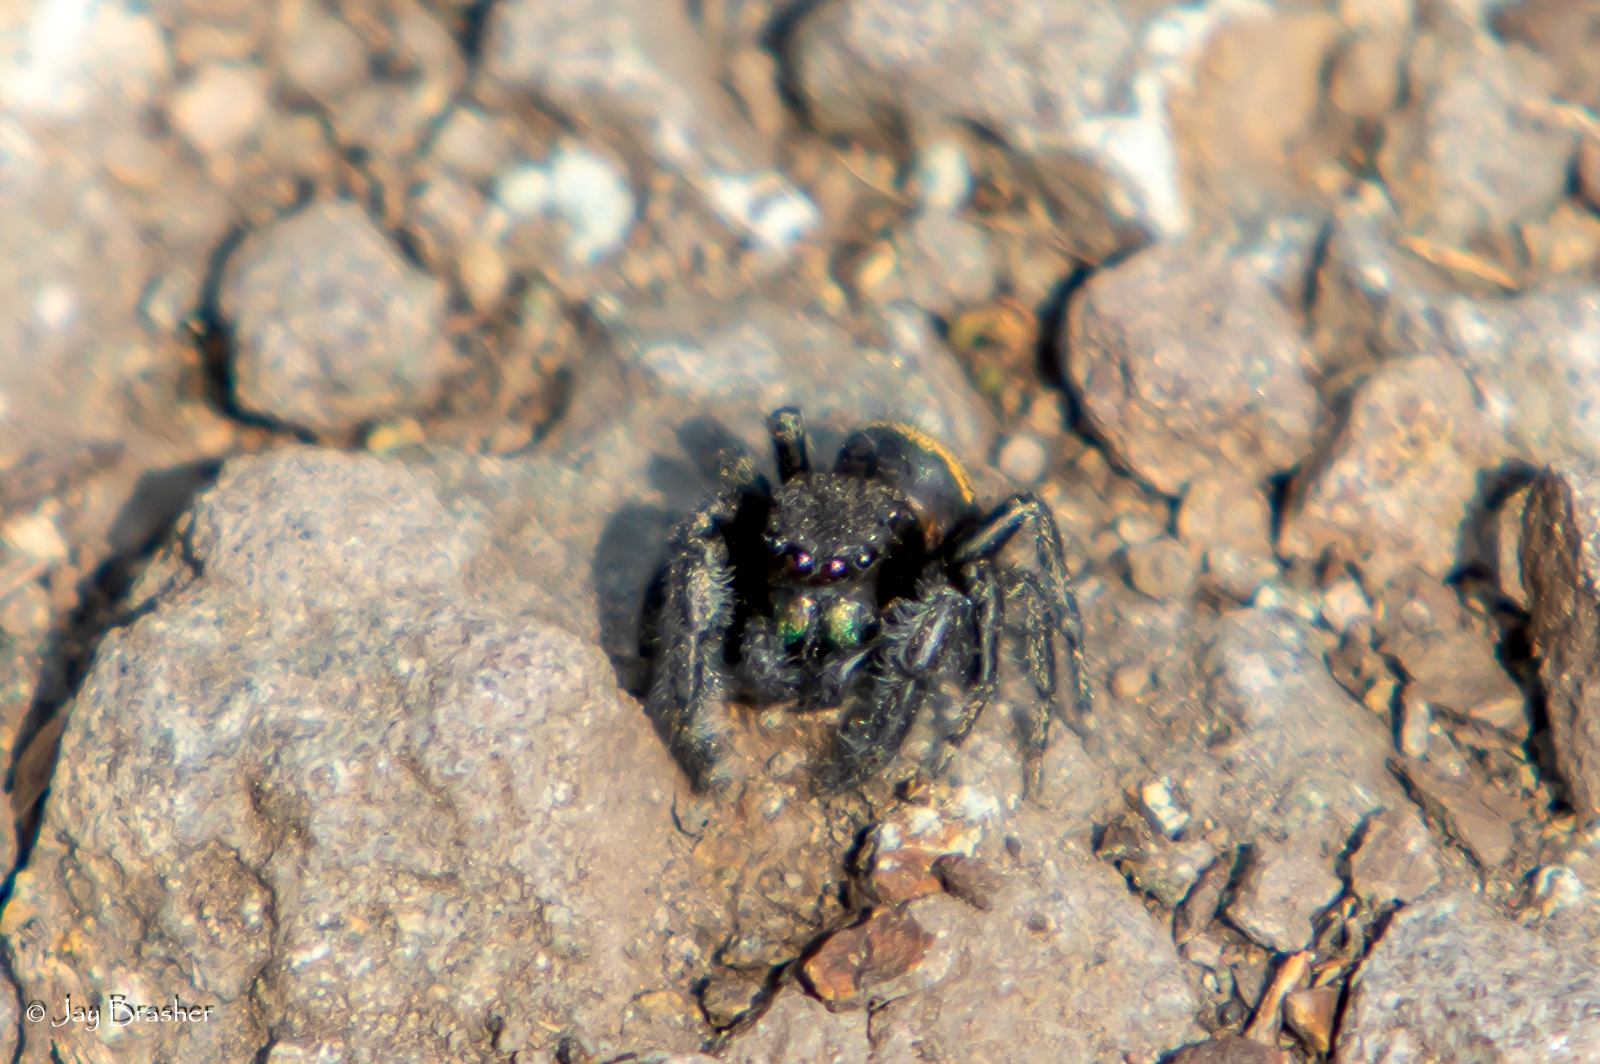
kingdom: Animalia
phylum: Arthropoda
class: Arachnida
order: Araneae
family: Salticidae
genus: Phidippus
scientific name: Phidippus purpuratus
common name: Marbled purple jumping spider
